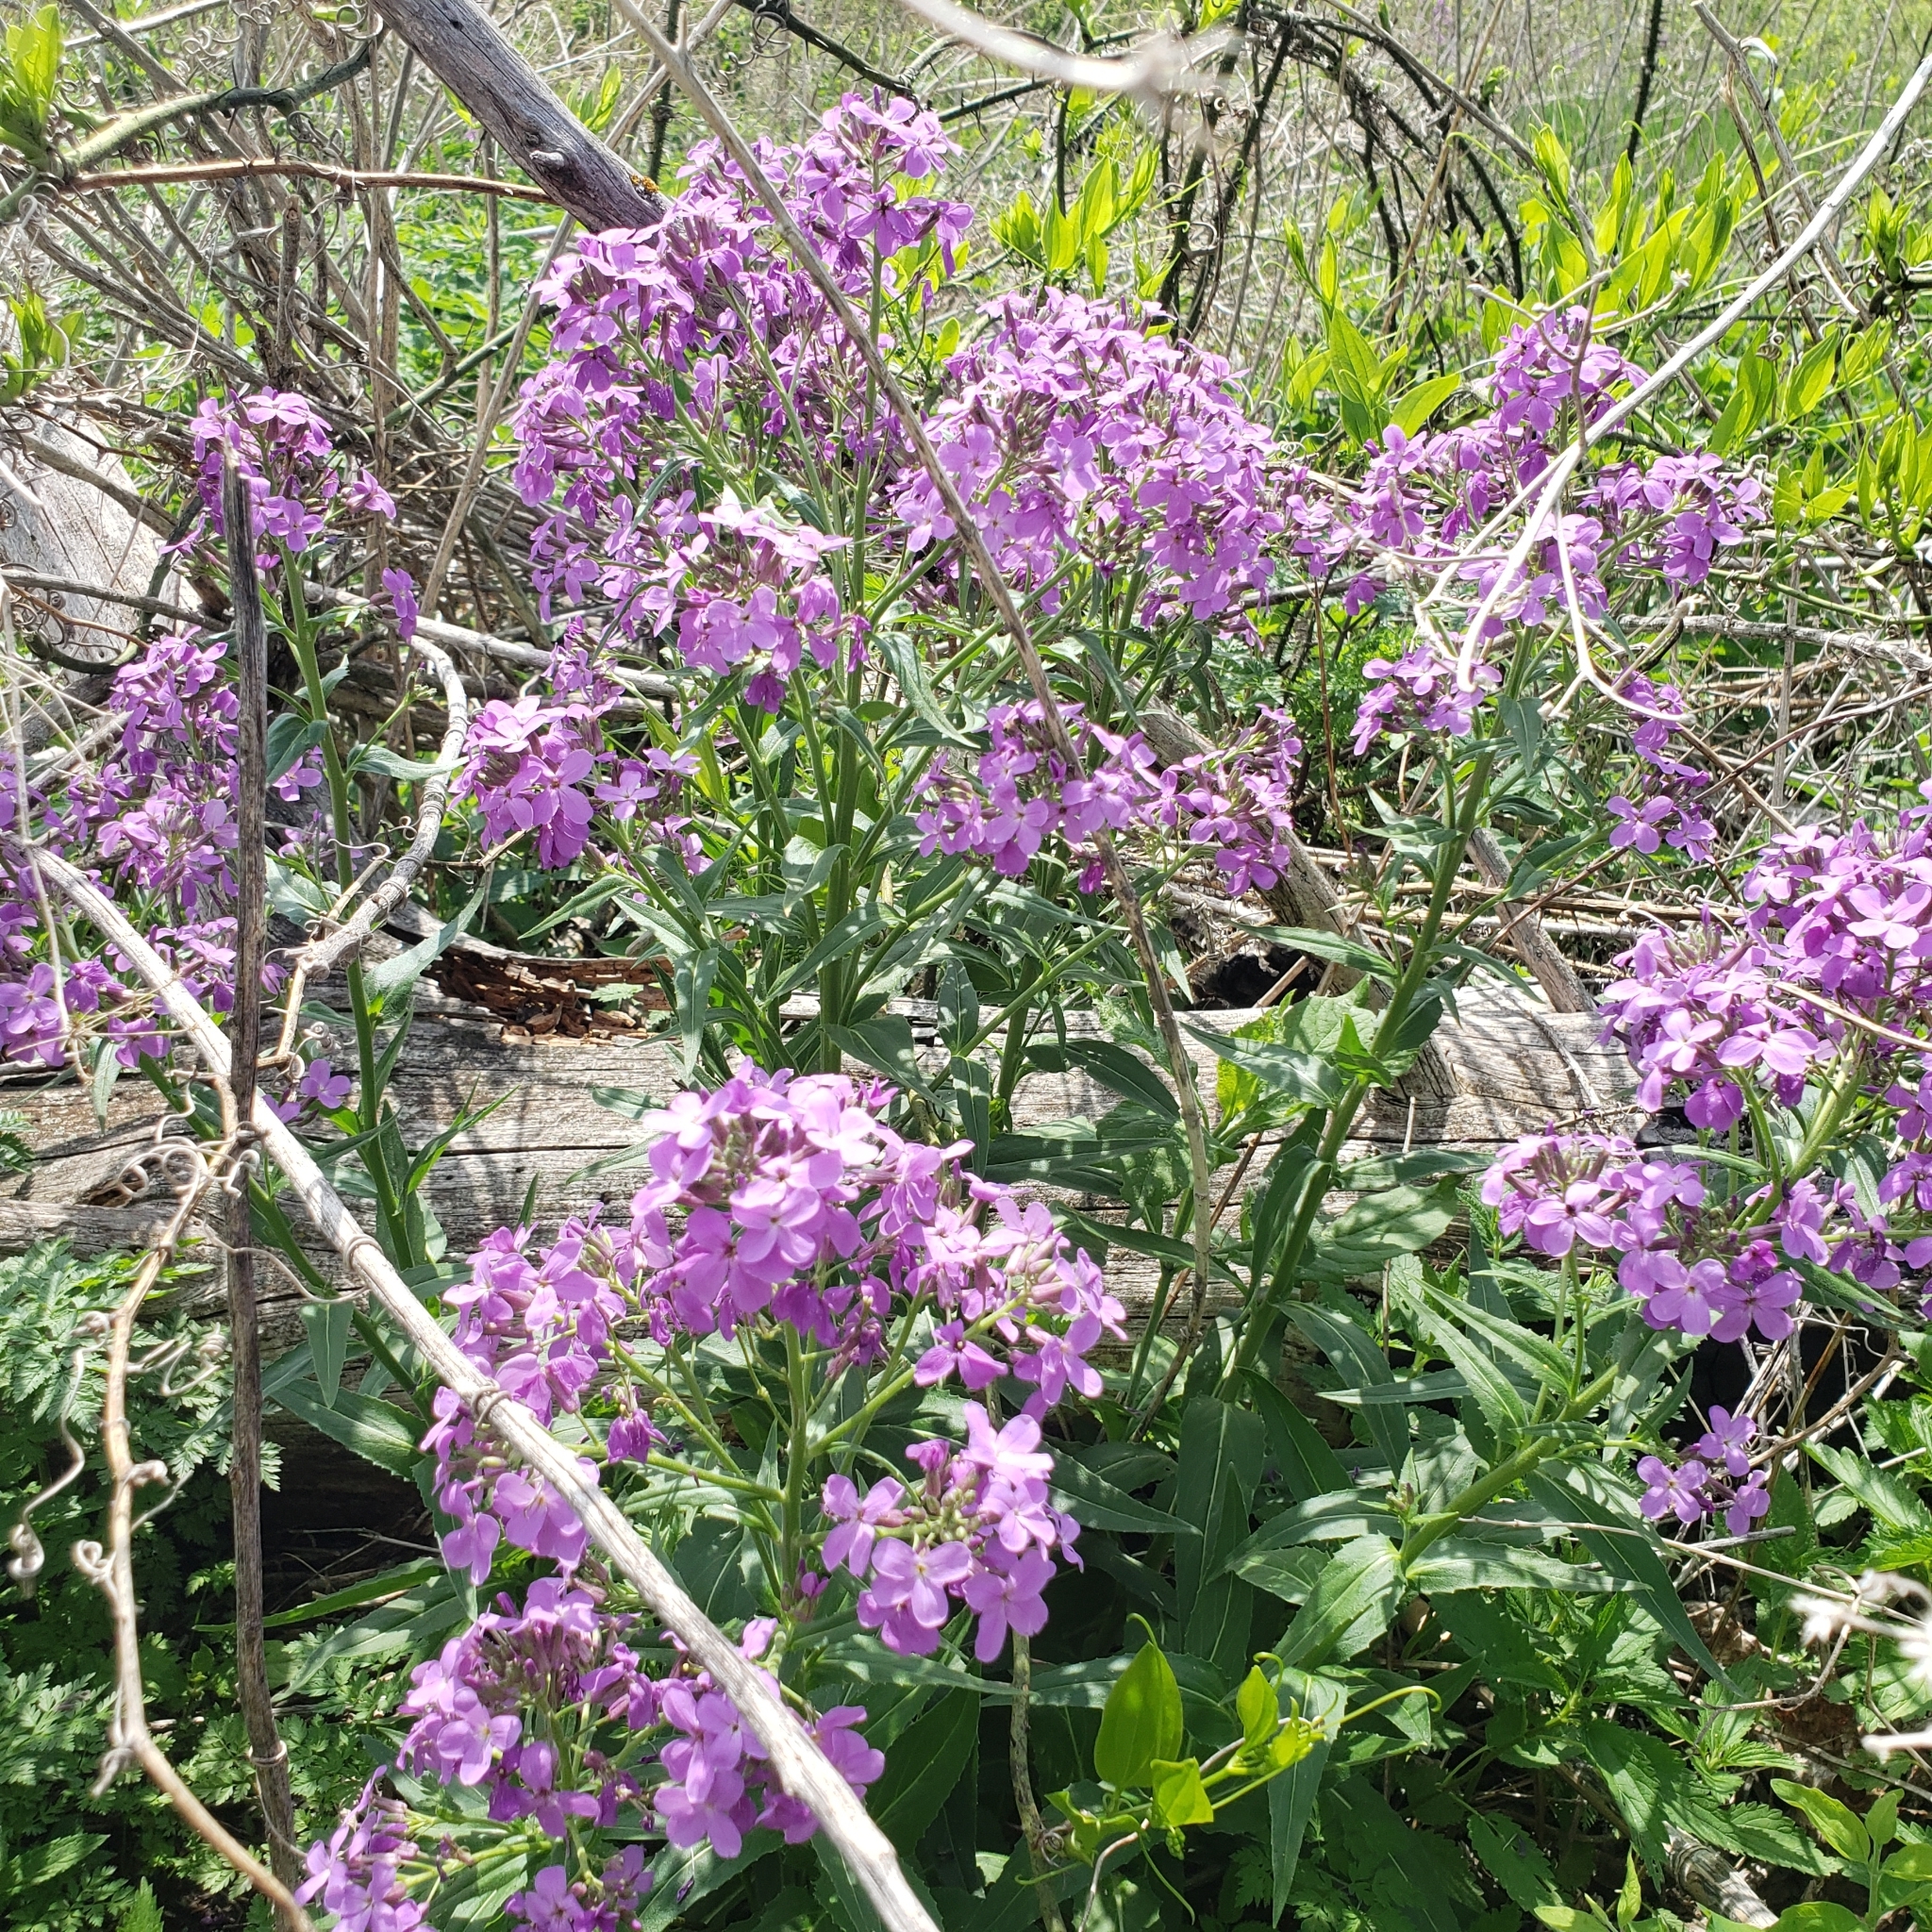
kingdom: Plantae
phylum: Tracheophyta
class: Magnoliopsida
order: Brassicales
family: Brassicaceae
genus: Hesperis
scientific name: Hesperis matronalis
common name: Dame's-violet
